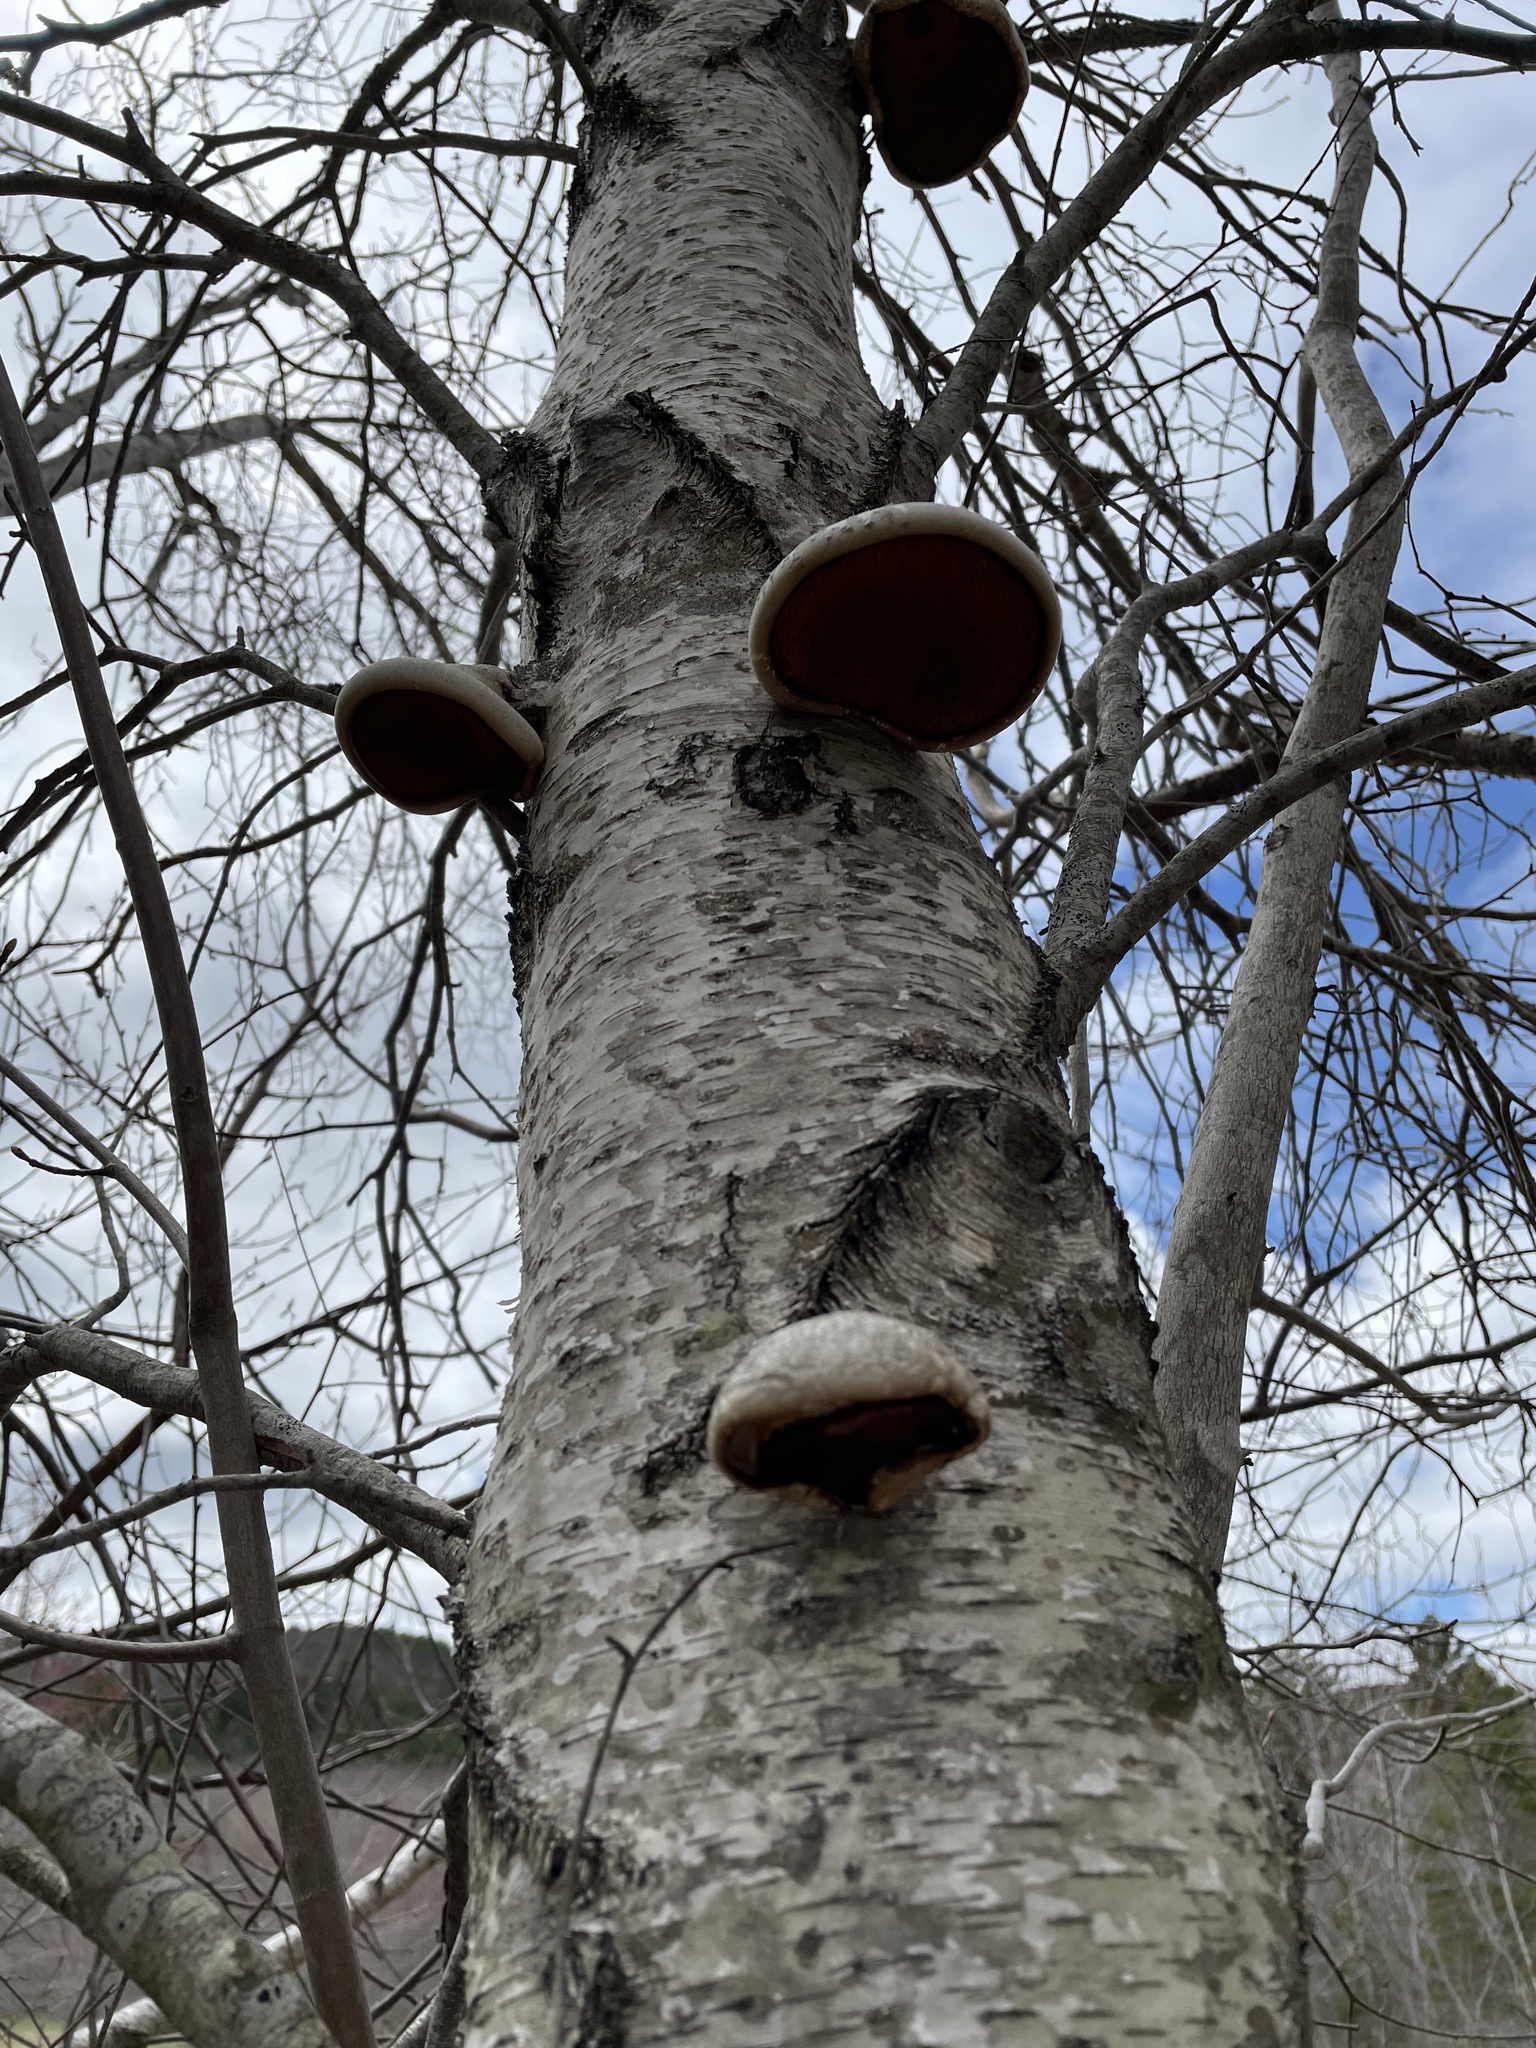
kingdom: Fungi
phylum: Basidiomycota
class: Agaricomycetes
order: Polyporales
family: Fomitopsidaceae
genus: Fomitopsis
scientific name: Fomitopsis betulina
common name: Birch polypore
